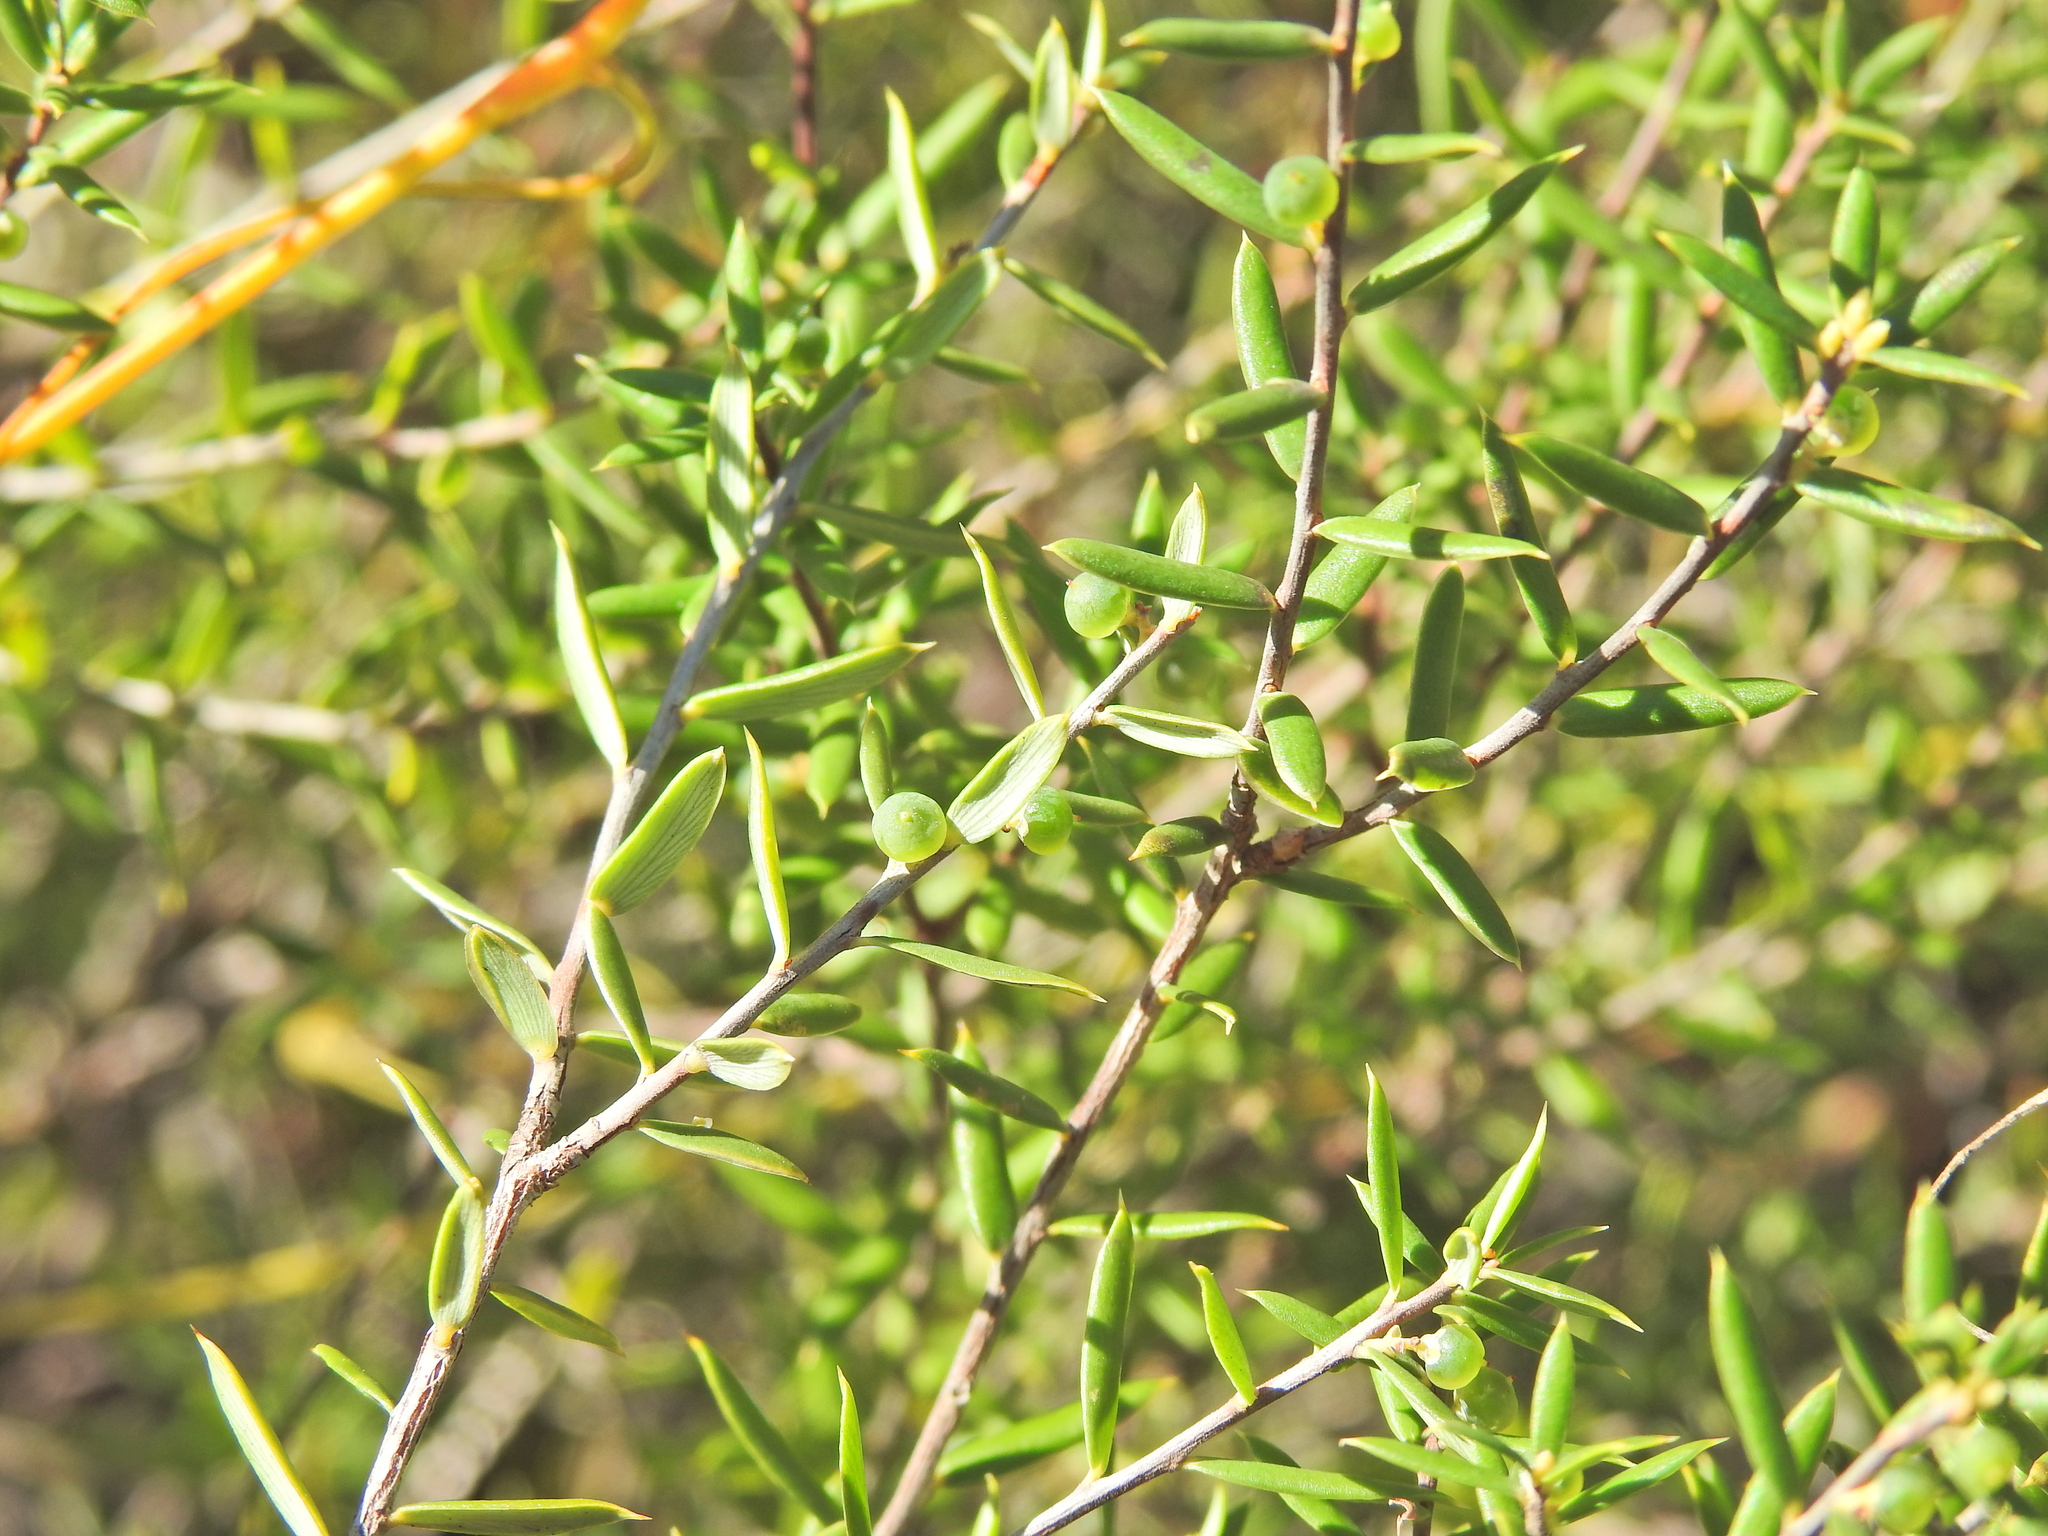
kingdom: Plantae
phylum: Tracheophyta
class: Magnoliopsida
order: Ericales
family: Ericaceae
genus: Monotoca
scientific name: Monotoca scoparia
